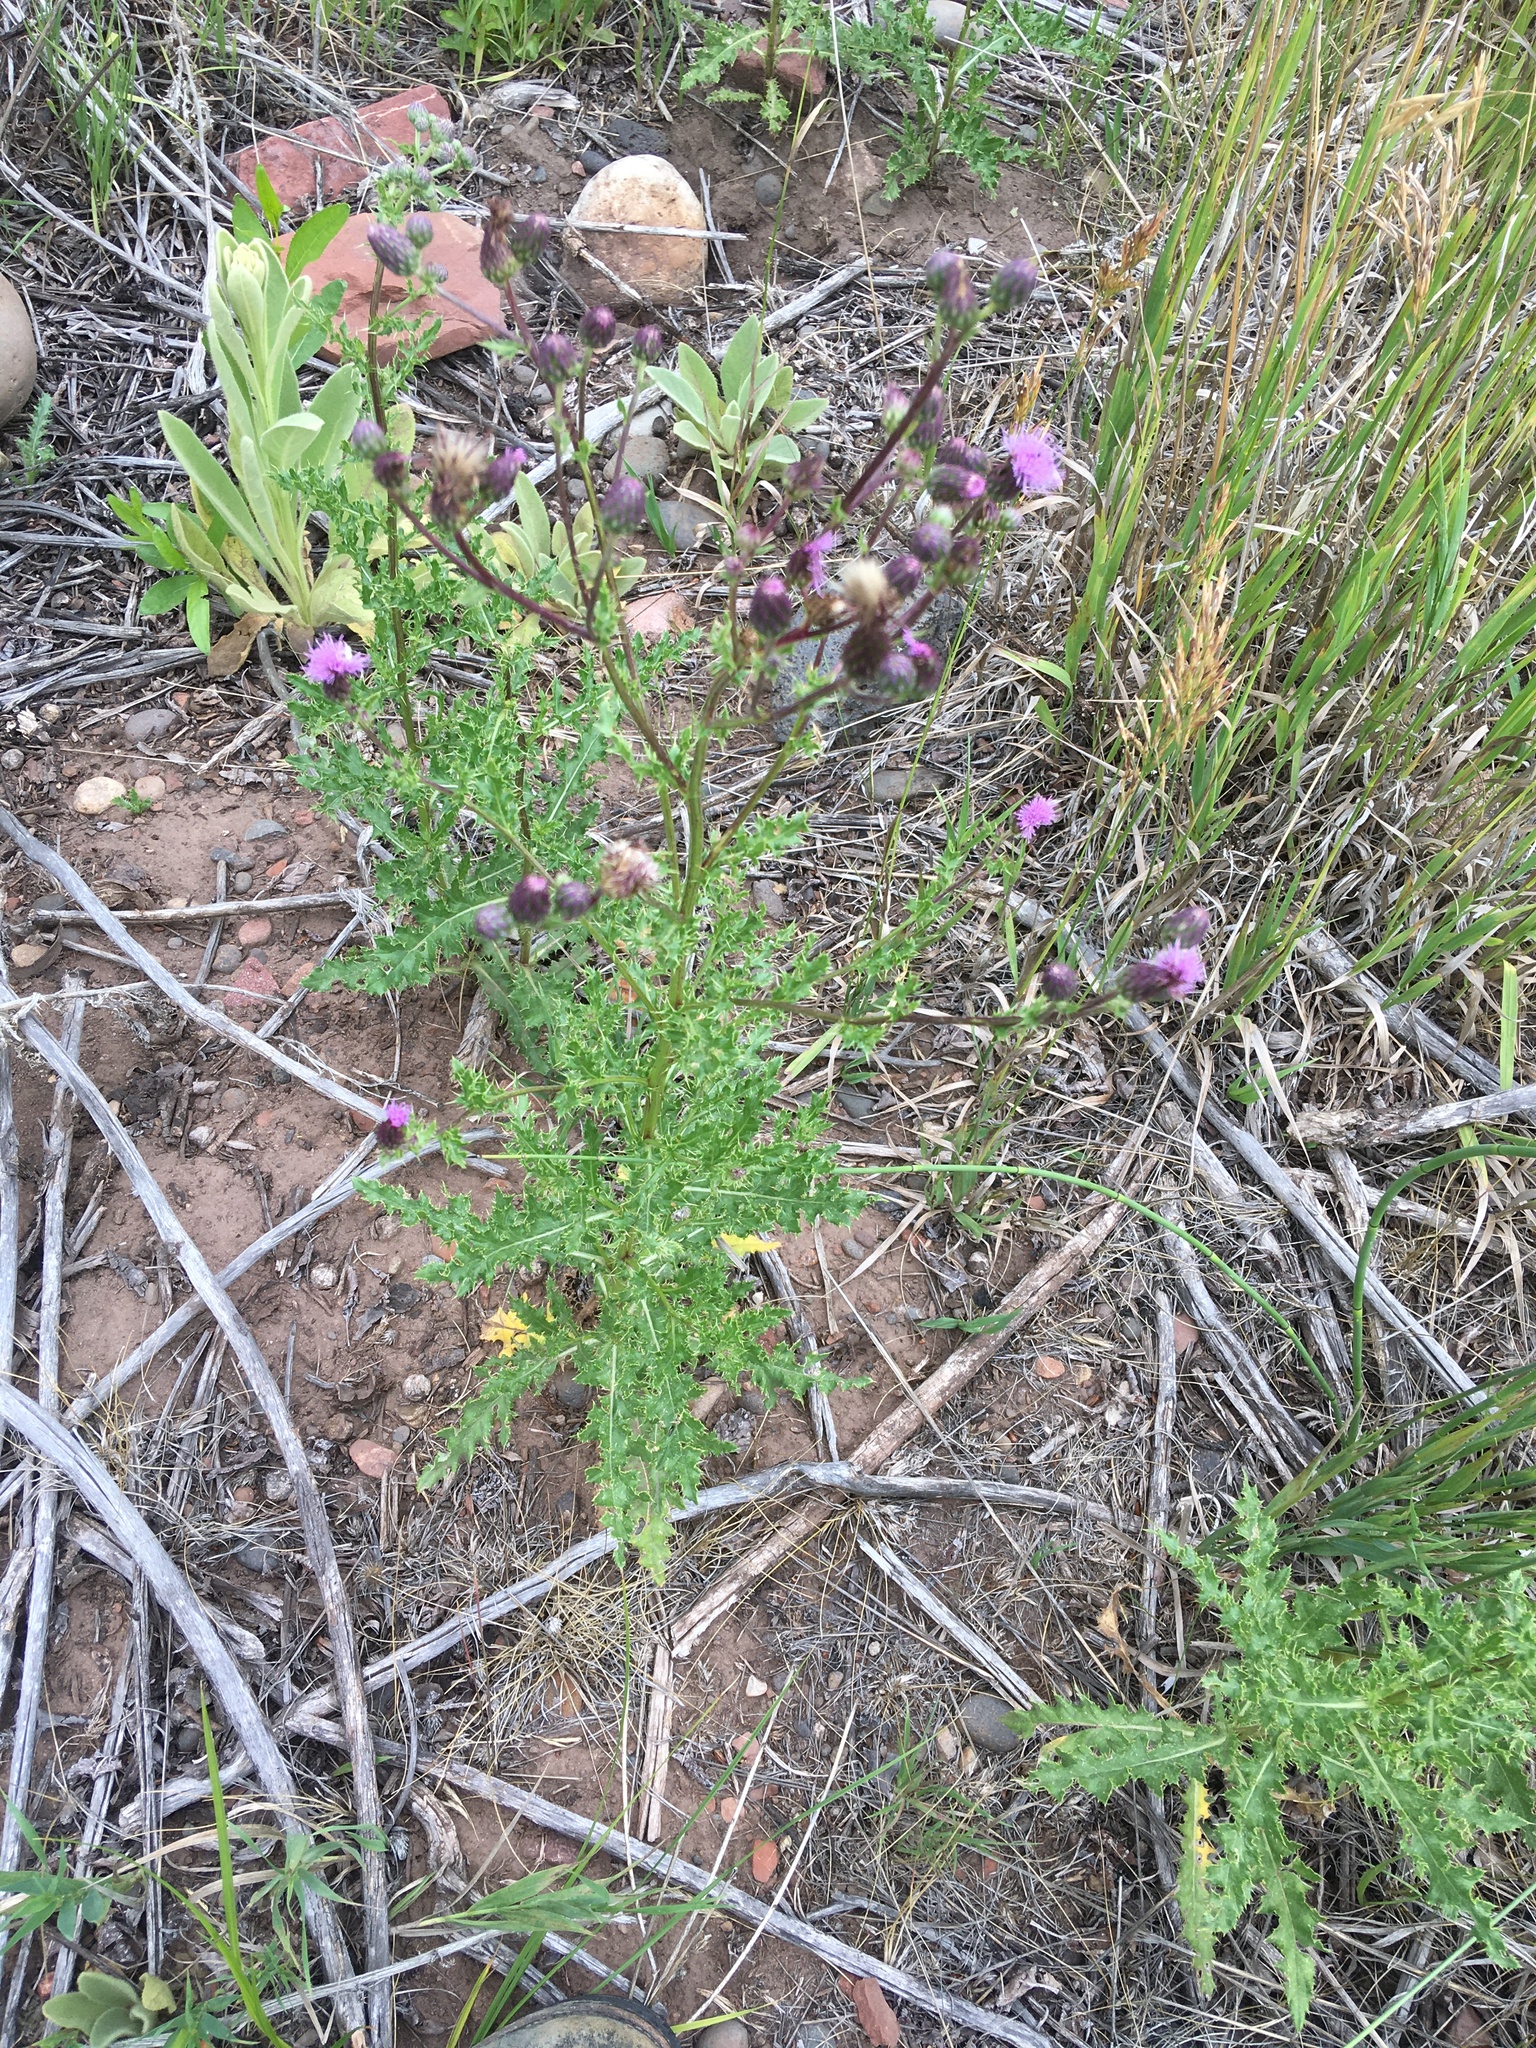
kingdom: Plantae
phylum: Tracheophyta
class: Magnoliopsida
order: Asterales
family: Asteraceae
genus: Cirsium
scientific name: Cirsium arvense
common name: Creeping thistle
